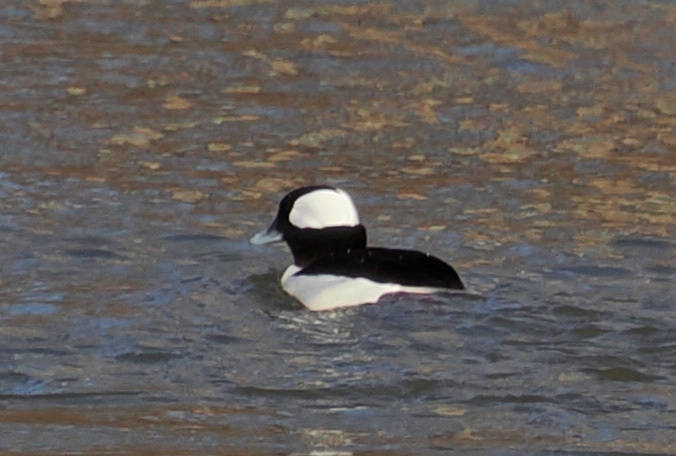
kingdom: Animalia
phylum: Chordata
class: Aves
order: Anseriformes
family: Anatidae
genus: Bucephala
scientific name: Bucephala albeola
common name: Bufflehead
